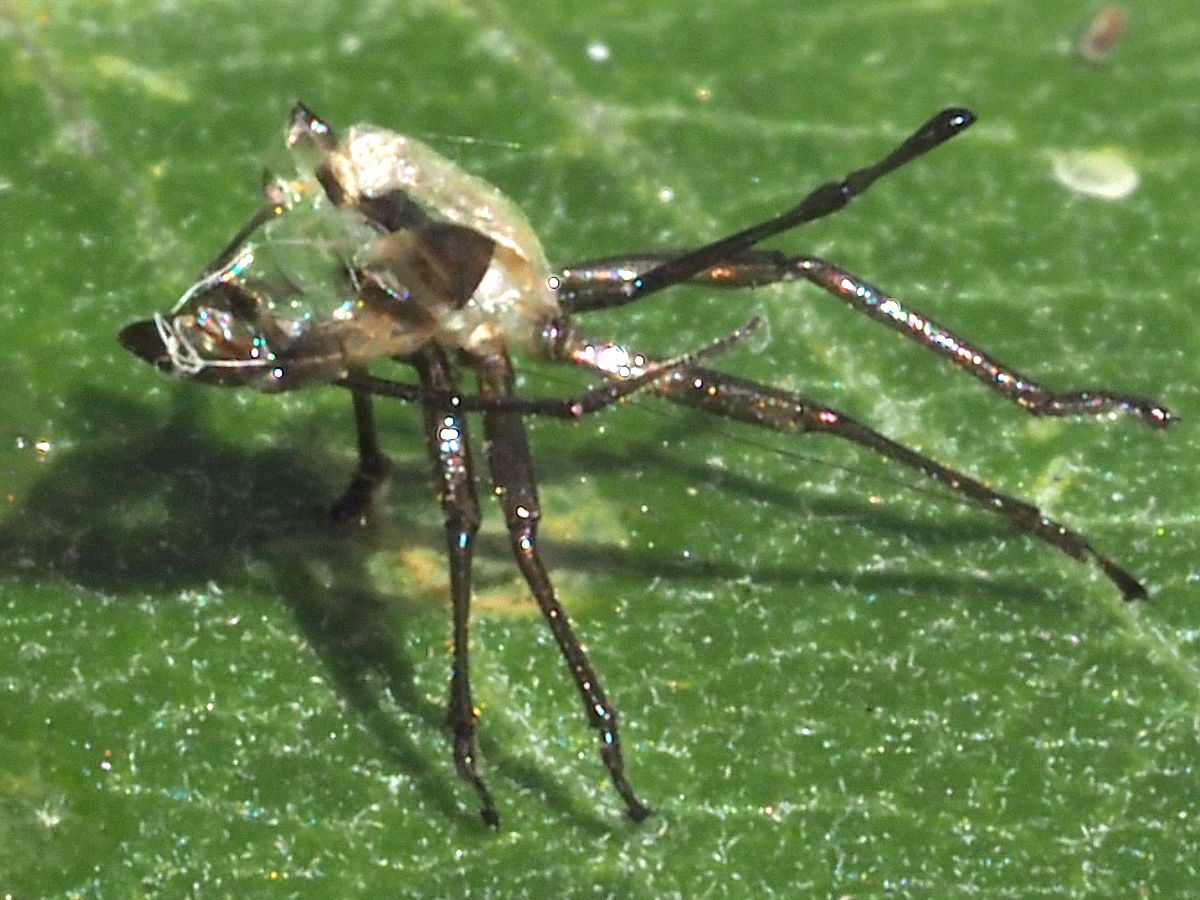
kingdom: Animalia
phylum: Arthropoda
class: Insecta
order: Hemiptera
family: Lygaeidae
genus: Oncopeltus
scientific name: Oncopeltus fasciatus
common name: Large milkweed bug
